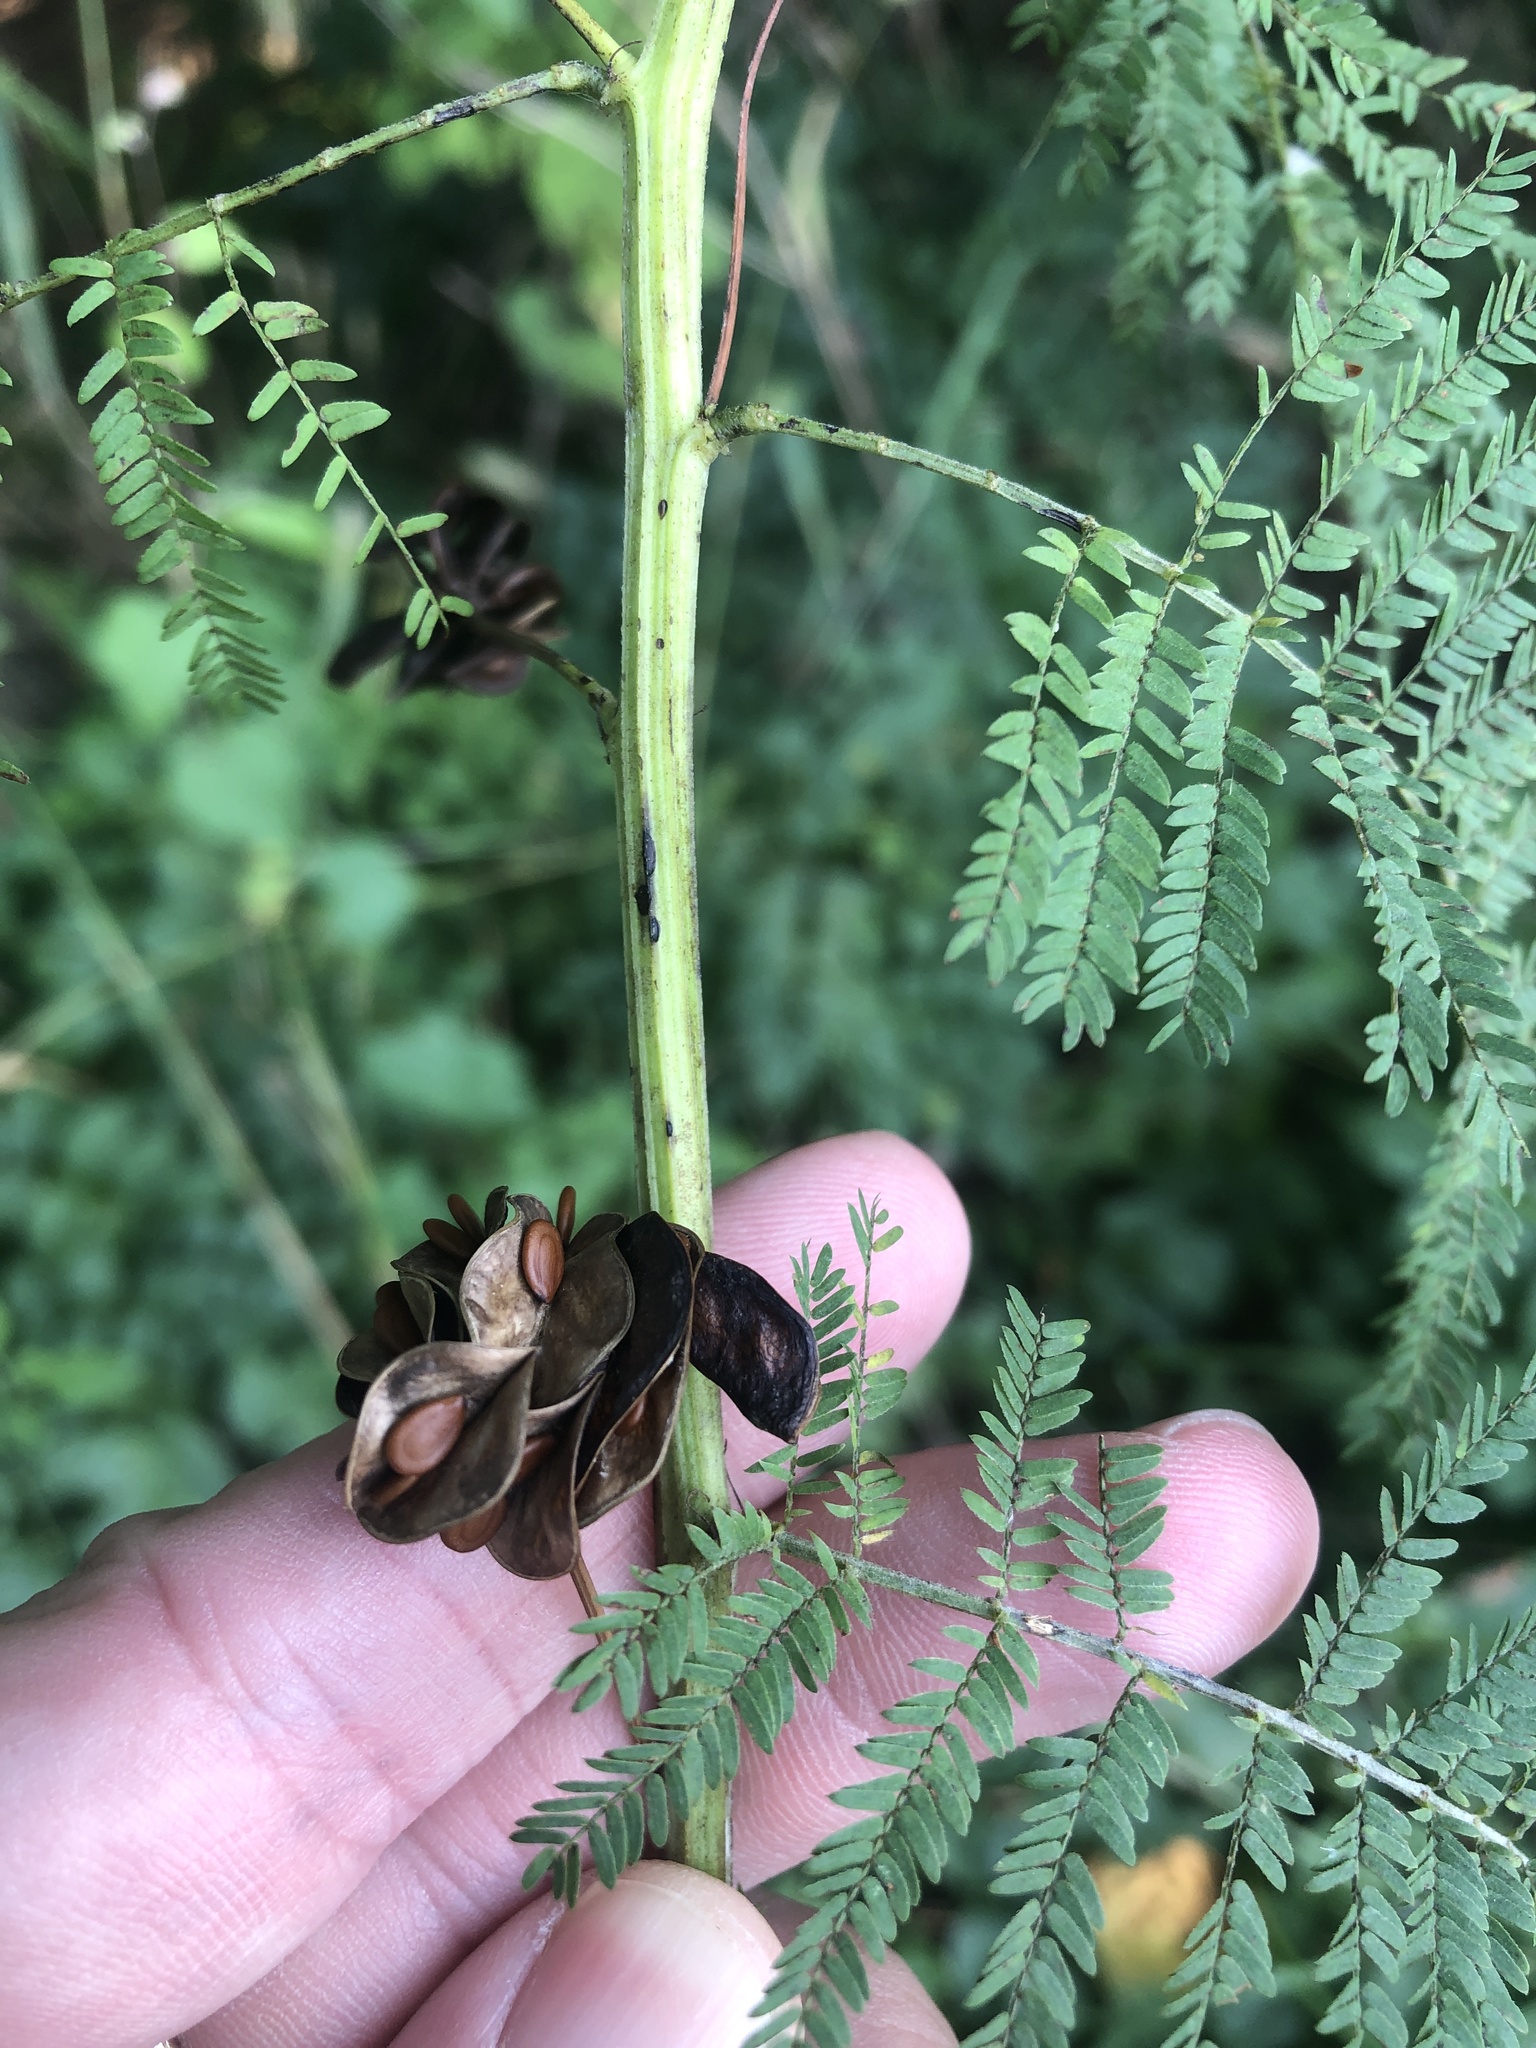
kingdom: Plantae
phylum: Tracheophyta
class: Magnoliopsida
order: Fabales
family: Fabaceae
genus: Desmanthus
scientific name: Desmanthus illinoensis
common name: Illinois bundle-flower
